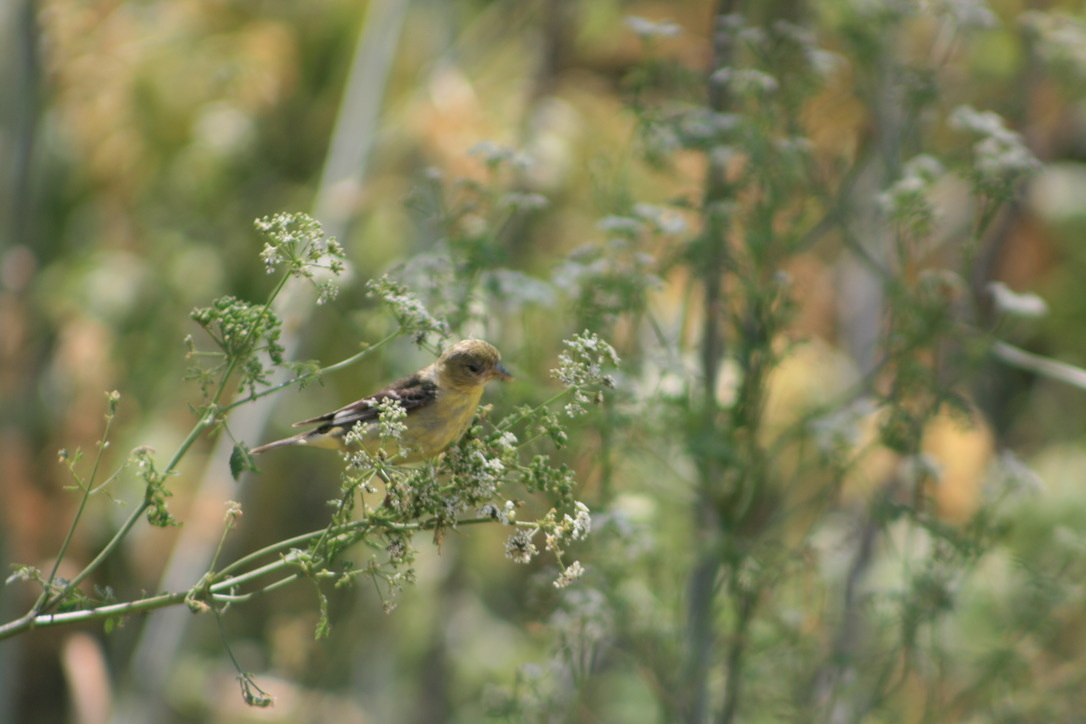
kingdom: Animalia
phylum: Chordata
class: Aves
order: Passeriformes
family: Fringillidae
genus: Spinus
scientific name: Spinus psaltria
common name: Lesser goldfinch
